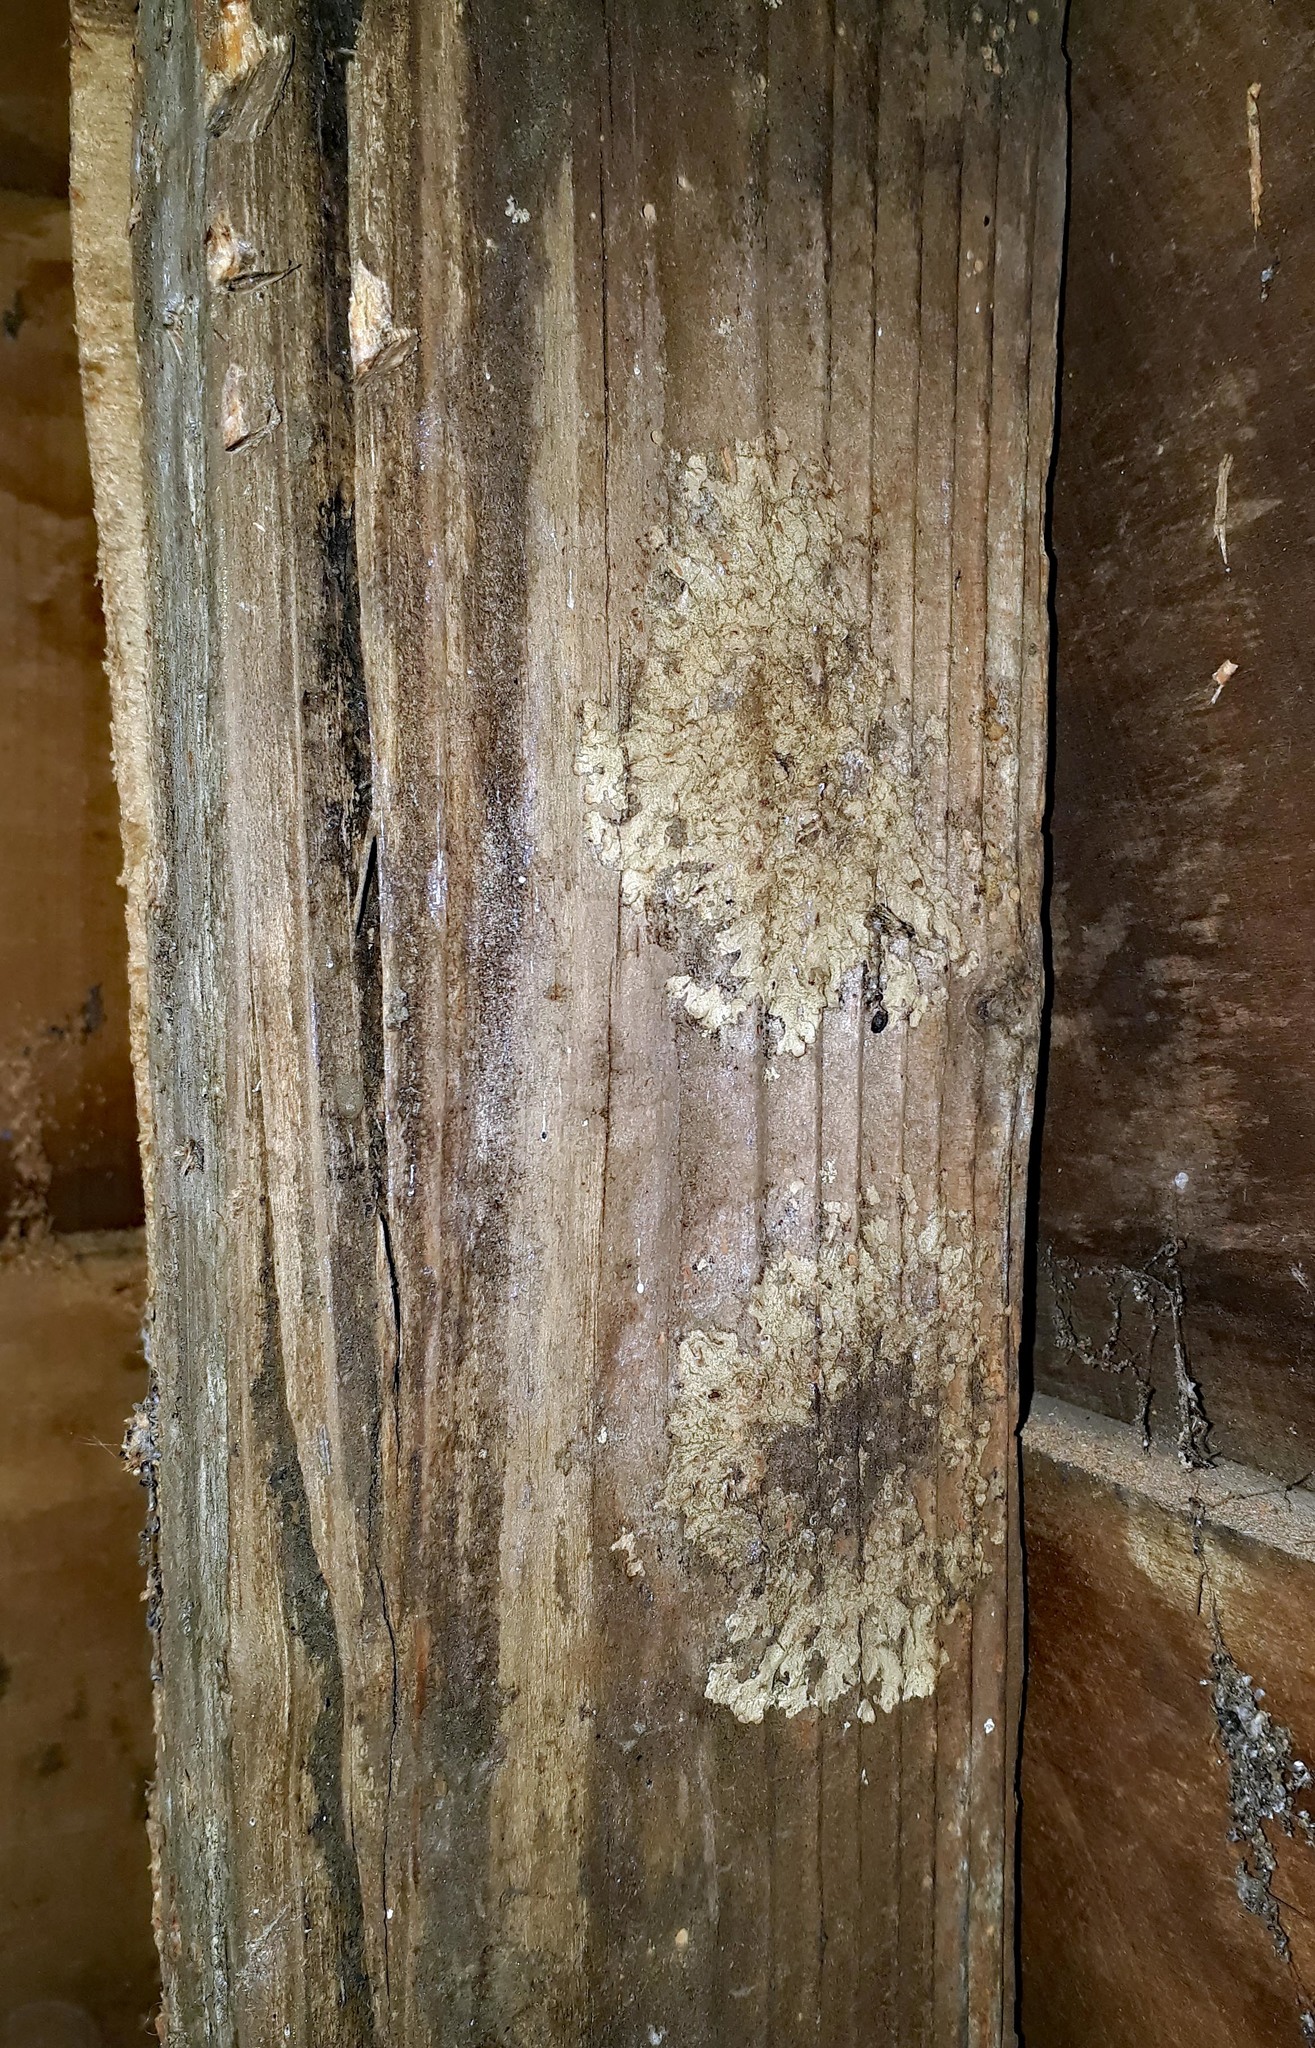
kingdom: Fungi
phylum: Ascomycota
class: Lecanoromycetes
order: Lecanorales
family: Parmeliaceae
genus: Xanthoparmelia
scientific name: Xanthoparmelia scabrosa
